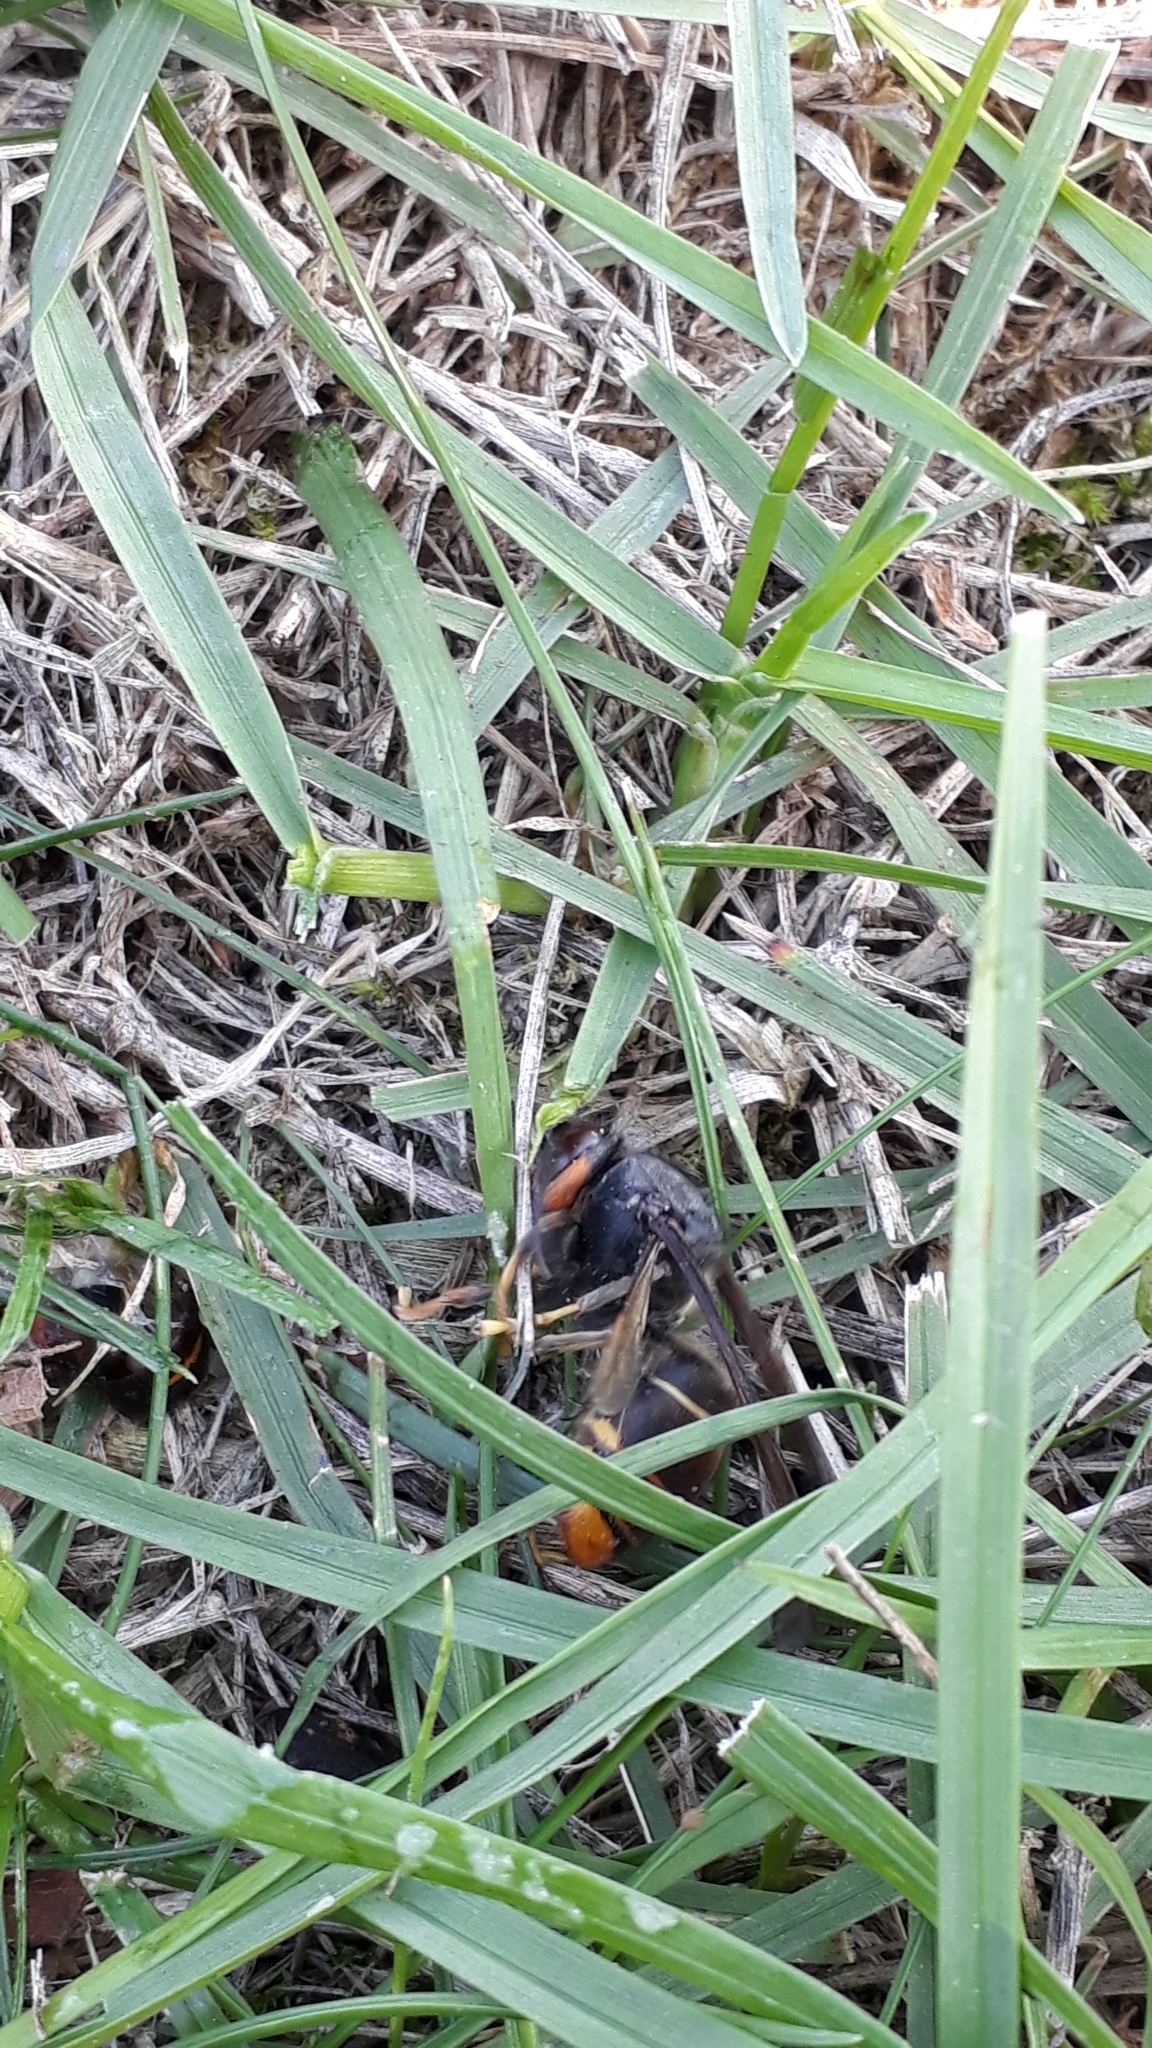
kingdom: Animalia
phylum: Arthropoda
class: Insecta
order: Hymenoptera
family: Vespidae
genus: Vespa
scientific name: Vespa velutina
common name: Asian hornet
